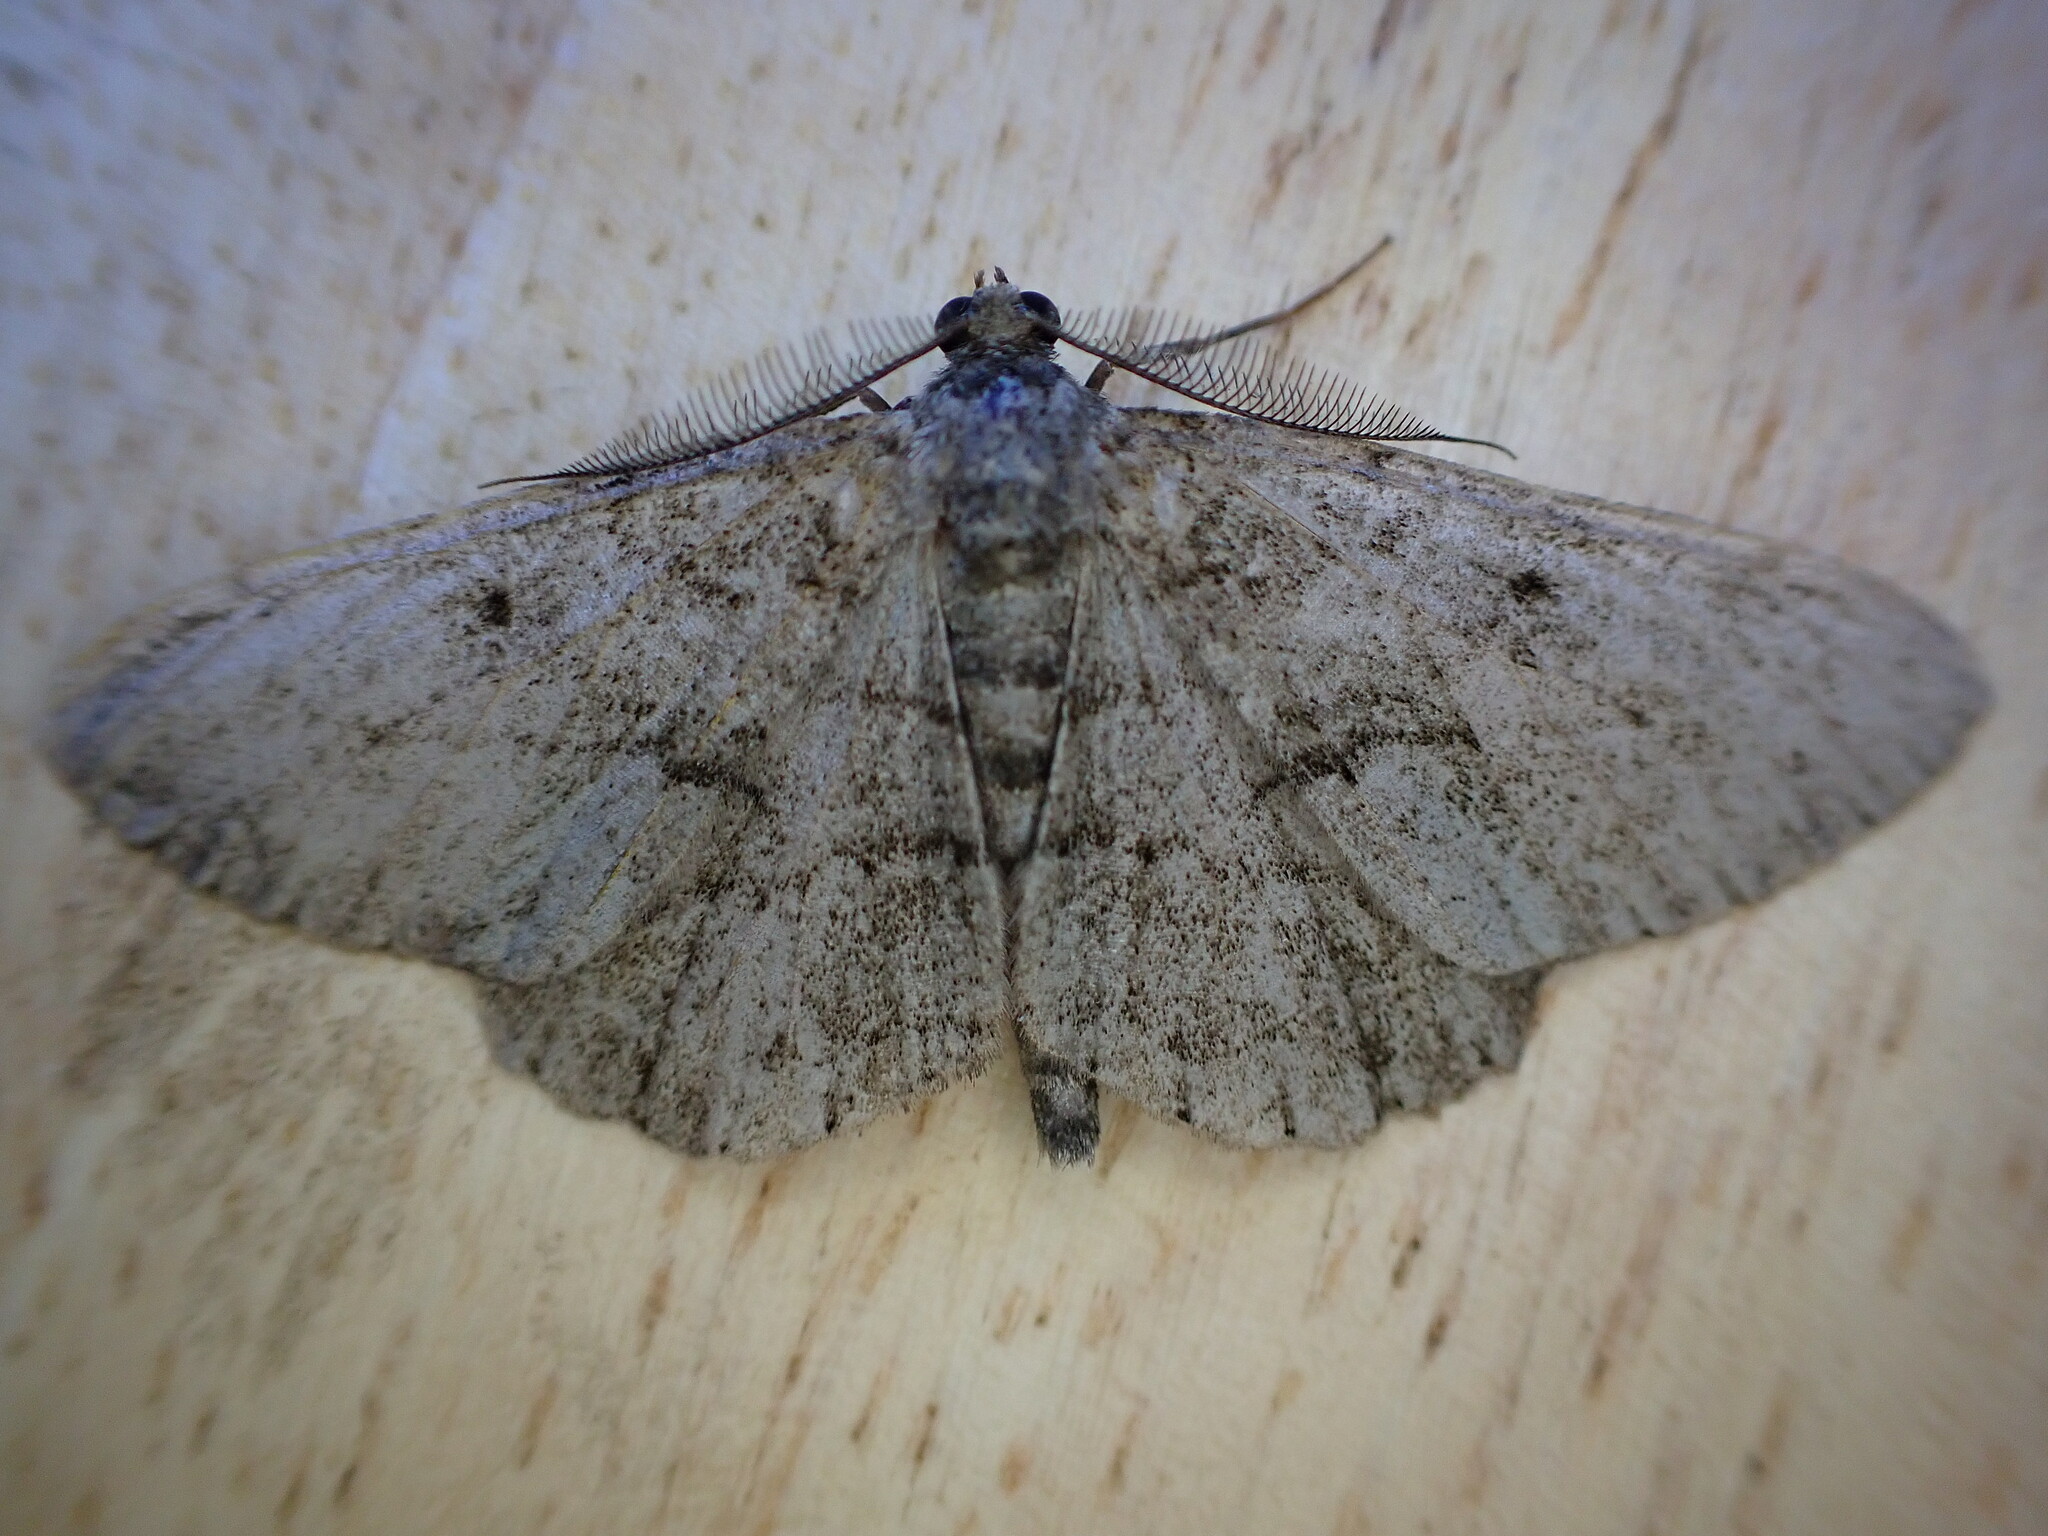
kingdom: Animalia
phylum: Arthropoda
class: Insecta
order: Lepidoptera
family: Geometridae
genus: Peribatodes
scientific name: Peribatodes rhomboidaria
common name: Willow beauty
